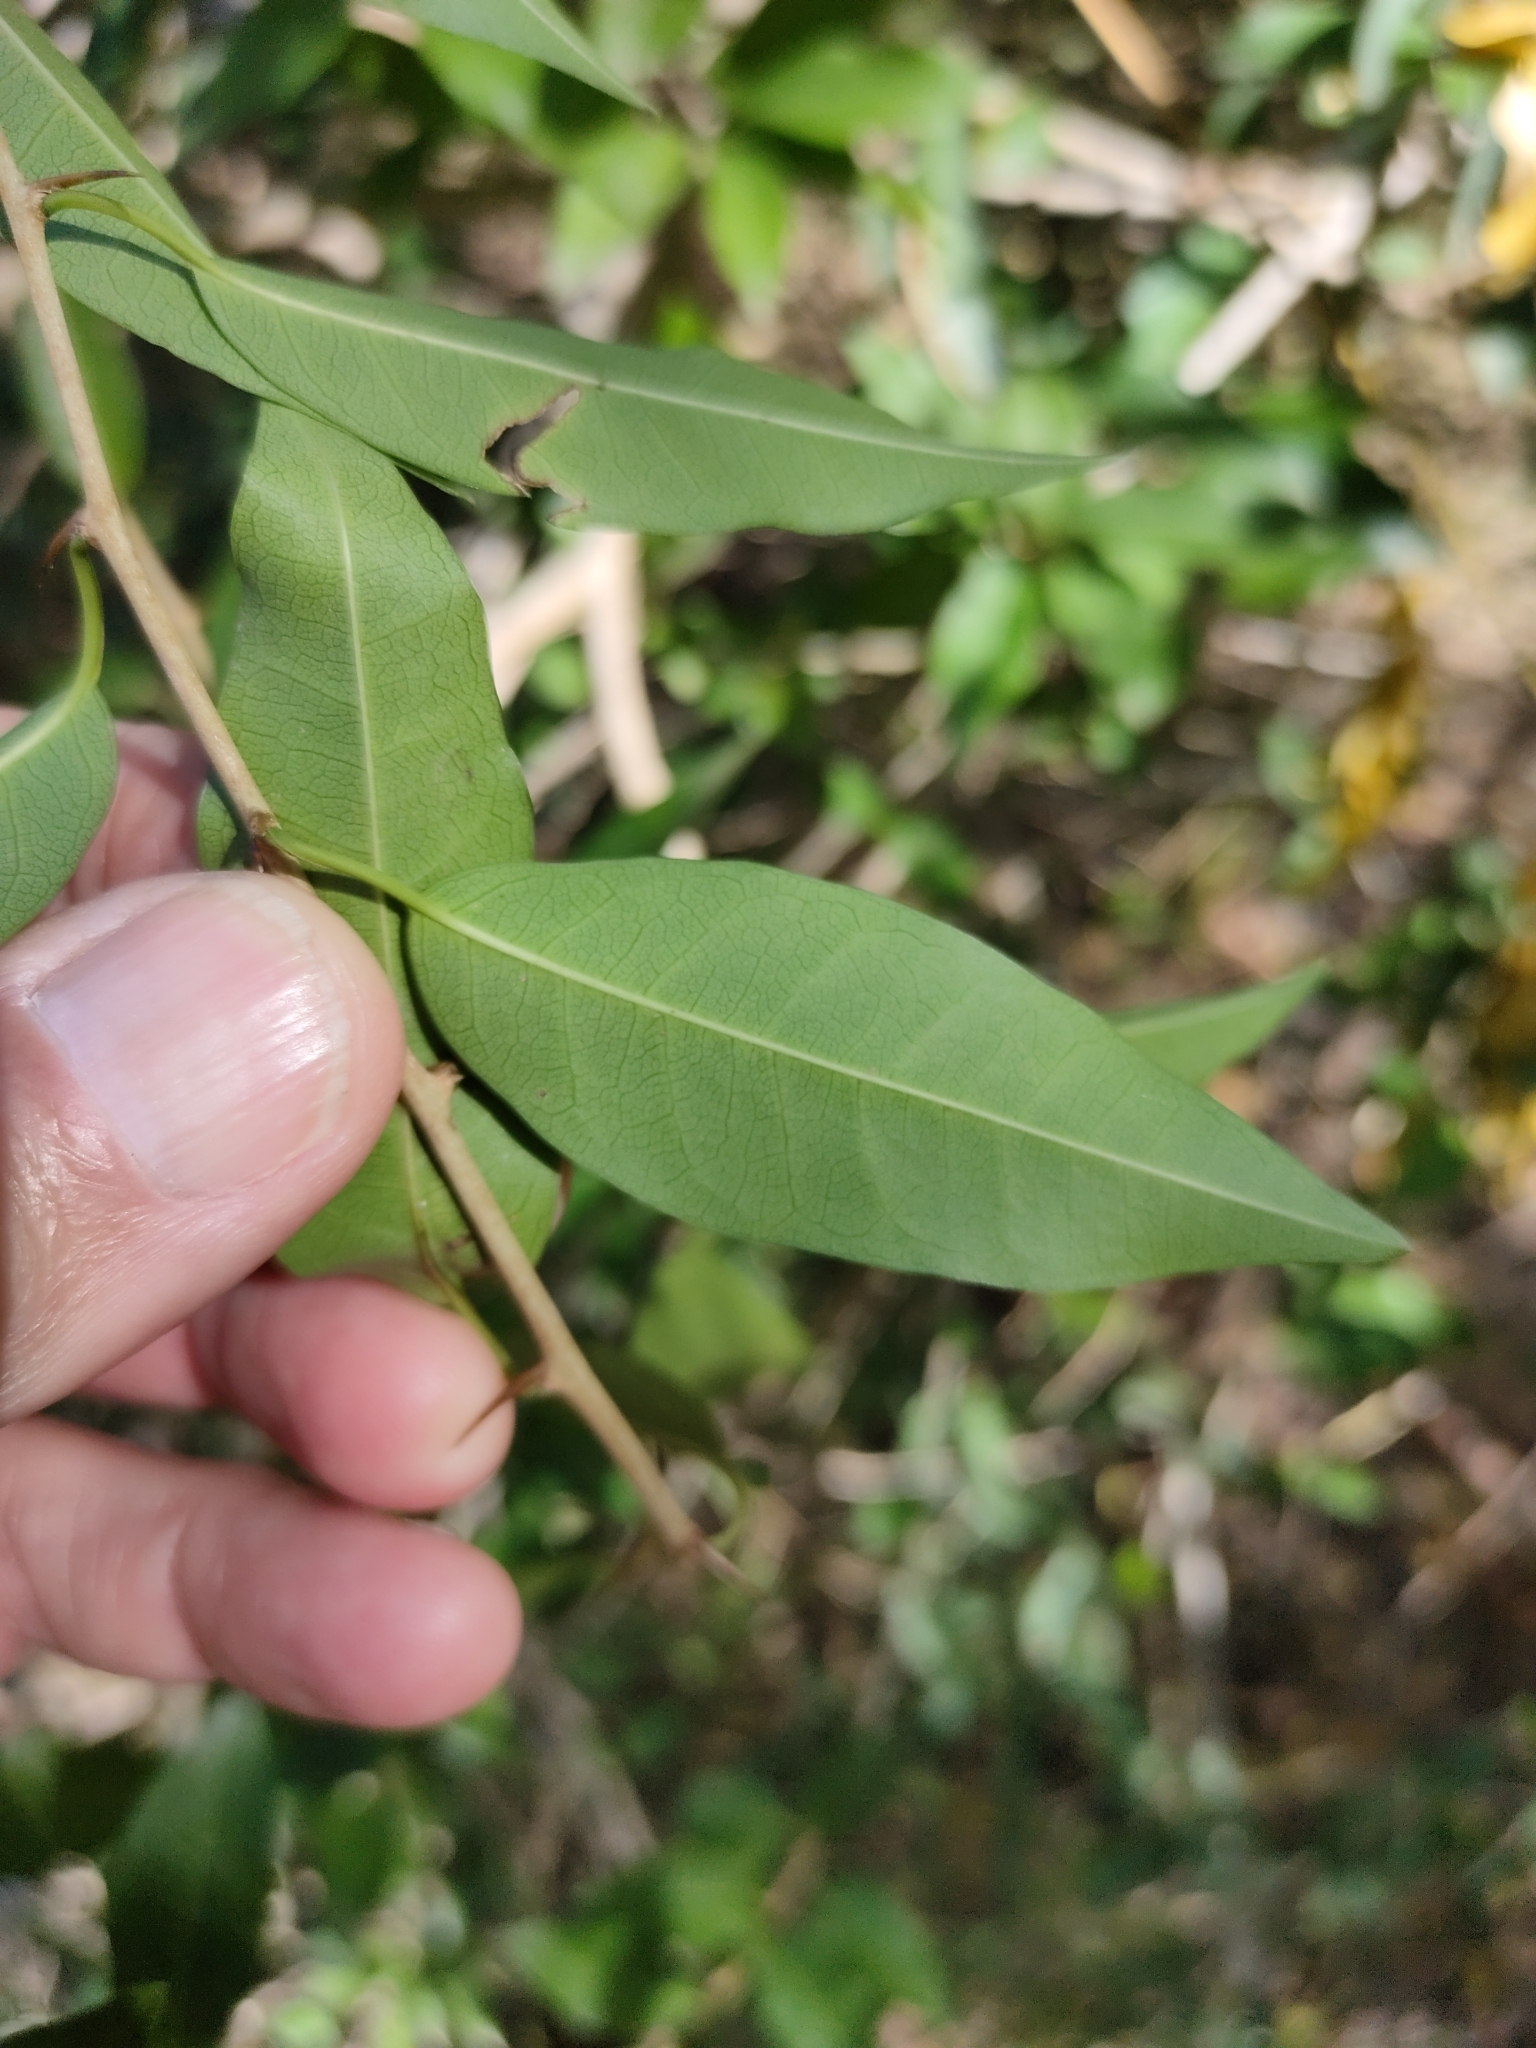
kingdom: Plantae
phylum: Tracheophyta
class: Magnoliopsida
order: Rosales
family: Moraceae
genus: Maclura
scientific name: Maclura cochinchinensis
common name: Cockspurthorn
